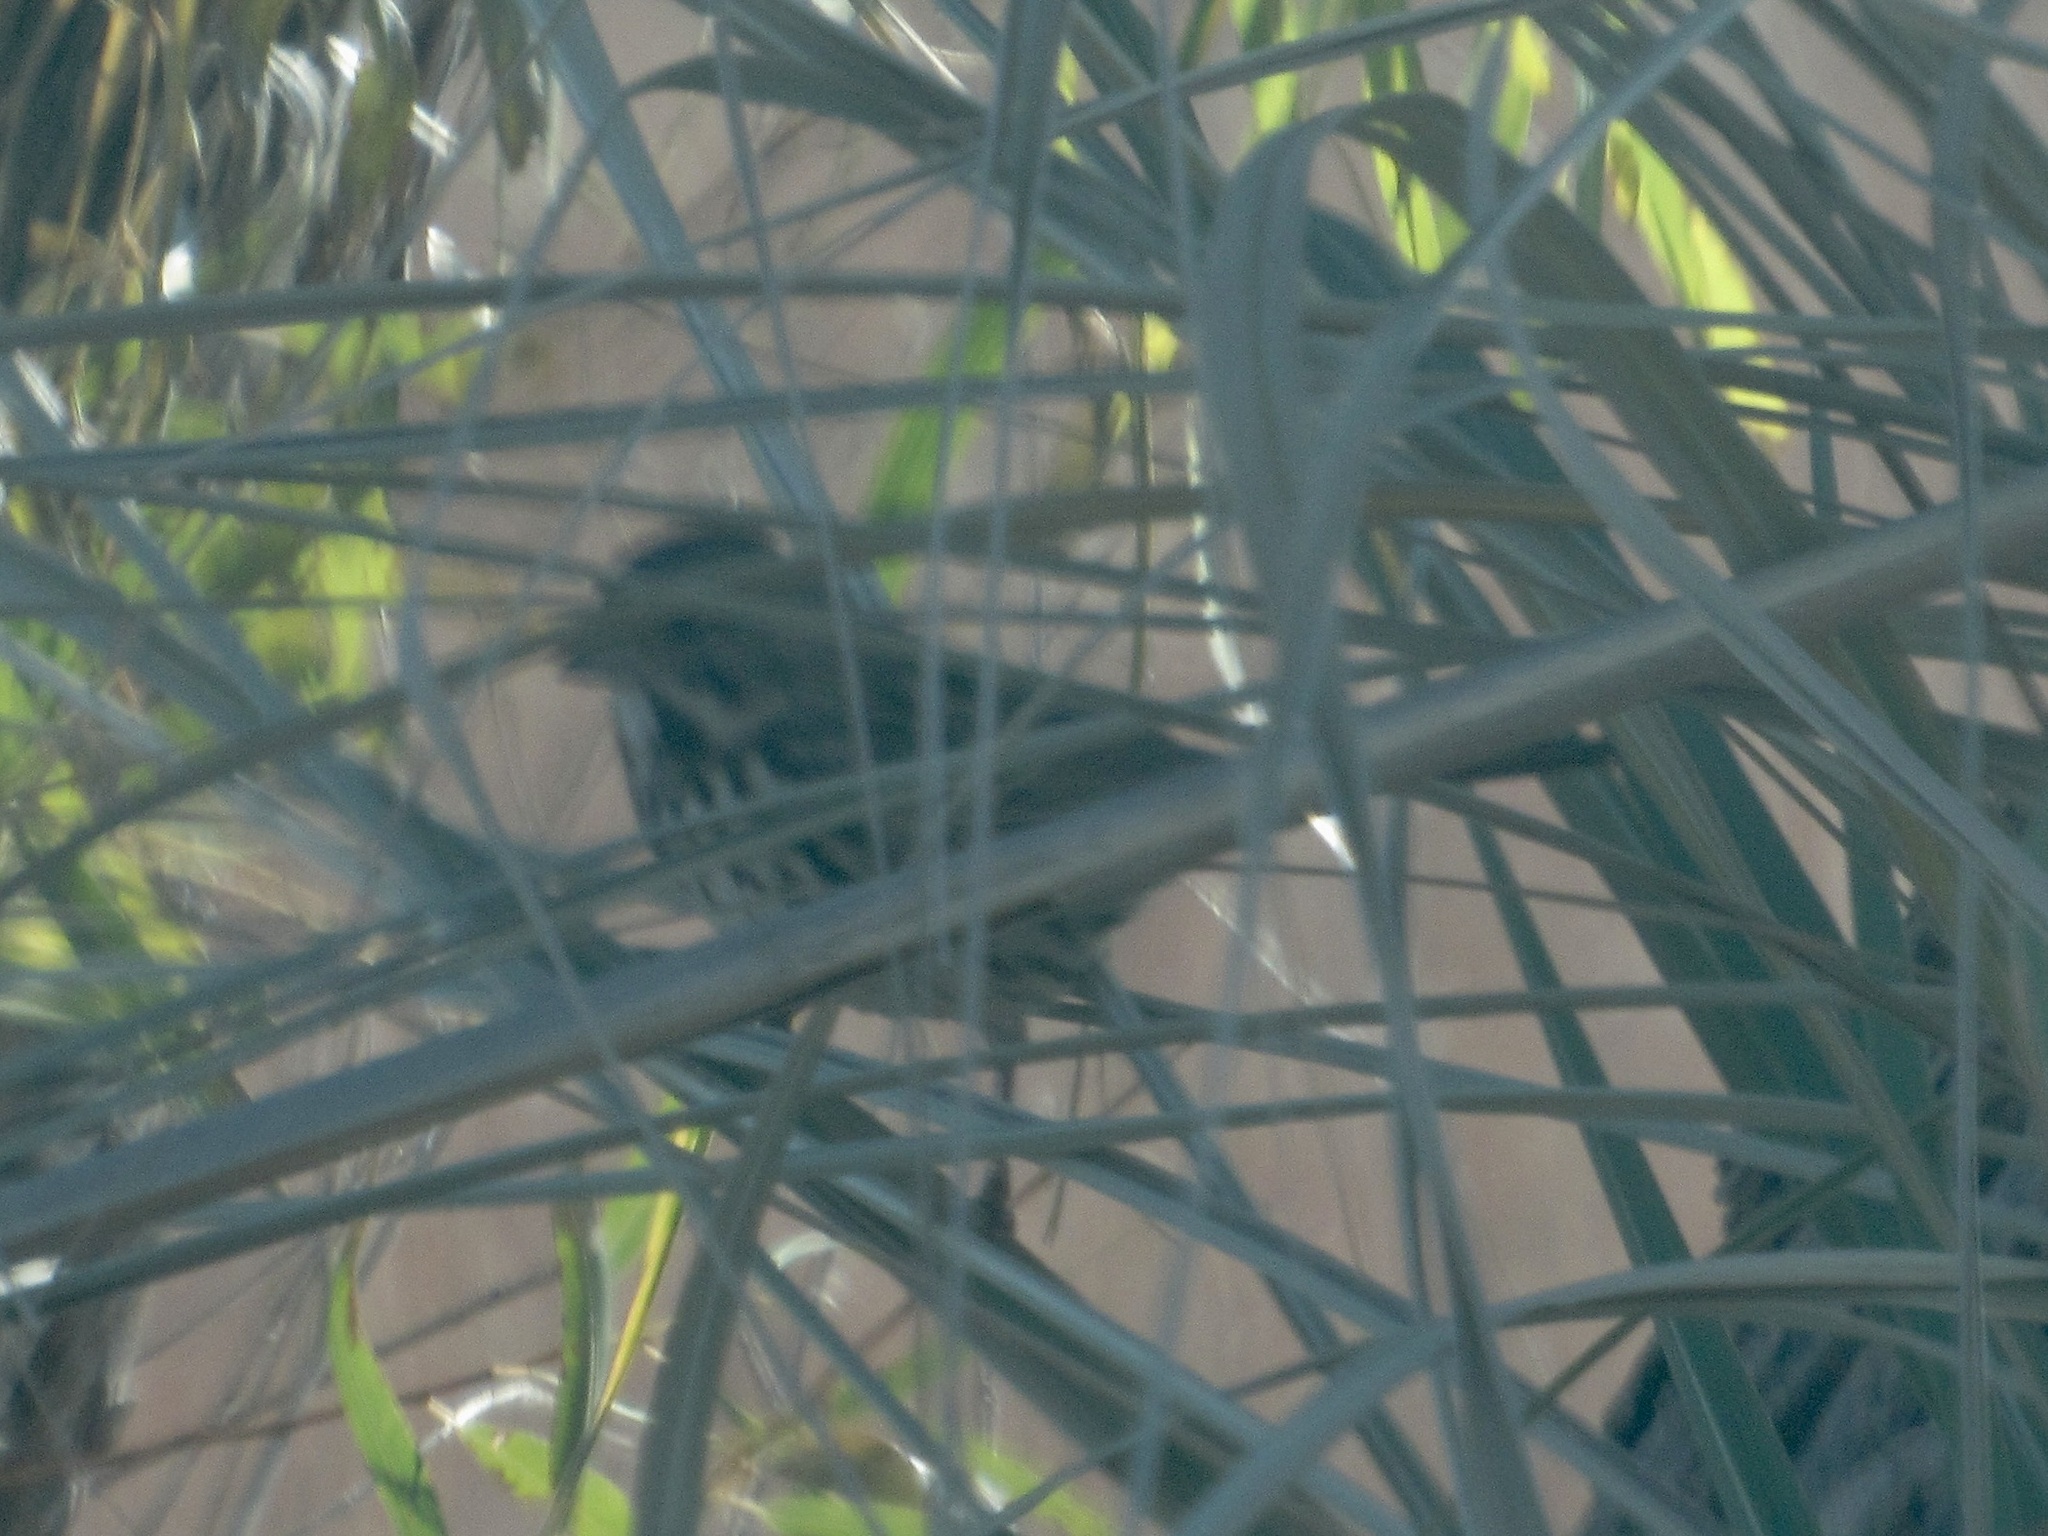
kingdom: Animalia
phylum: Chordata
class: Aves
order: Passeriformes
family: Passerellidae
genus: Melospiza
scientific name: Melospiza melodia
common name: Song sparrow
